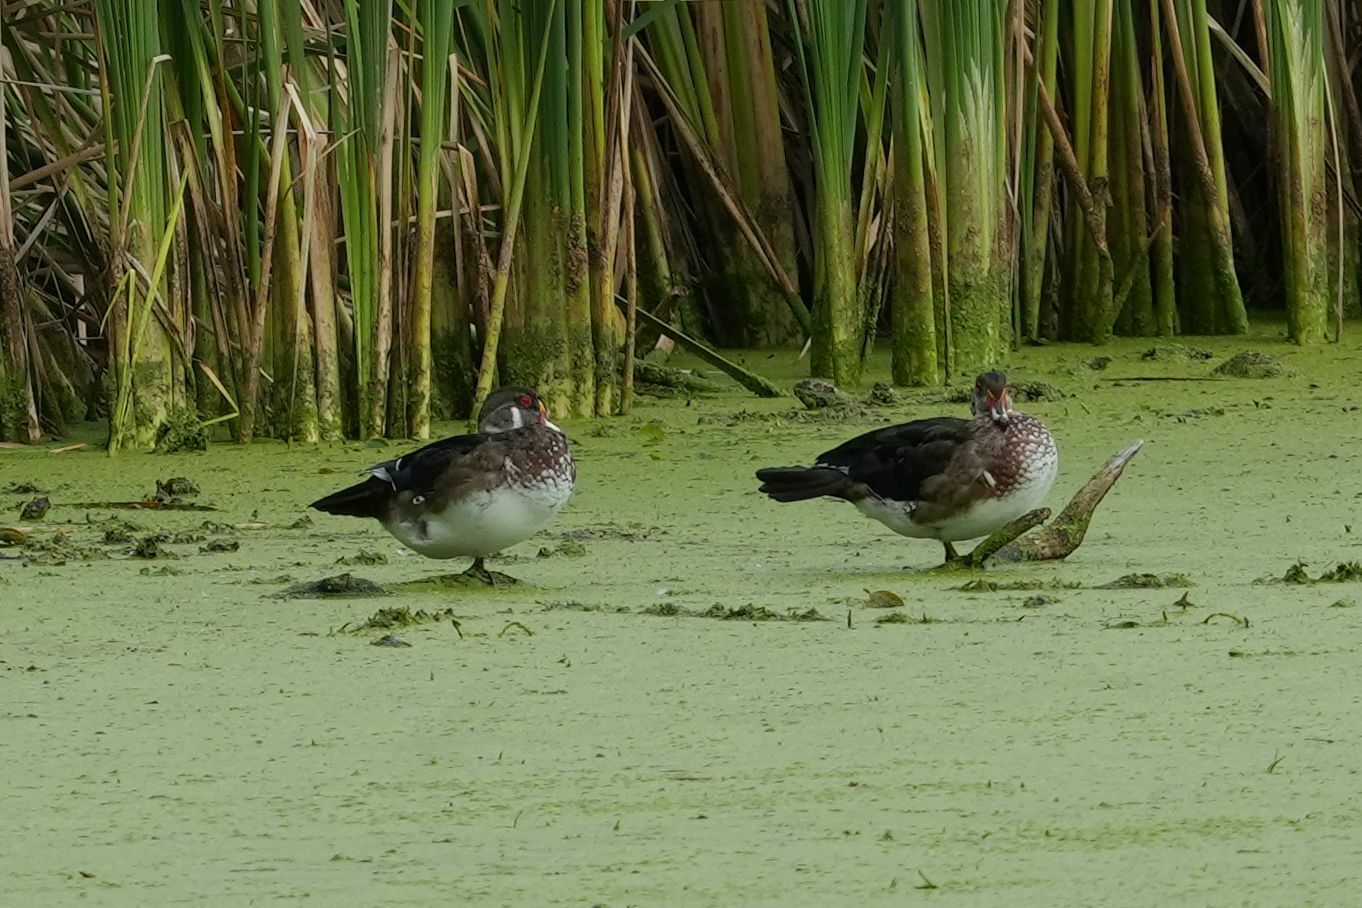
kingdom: Animalia
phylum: Chordata
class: Aves
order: Anseriformes
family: Anatidae
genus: Aix
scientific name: Aix sponsa
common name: Wood duck
